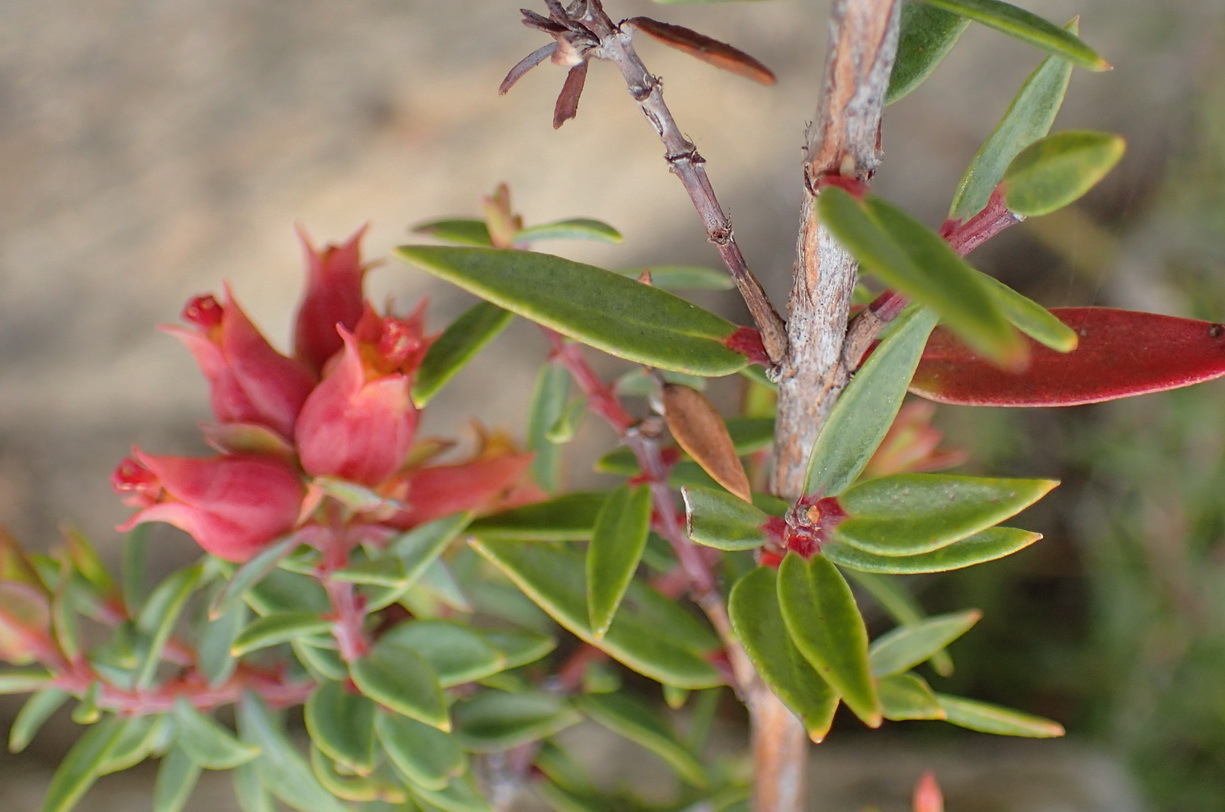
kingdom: Plantae
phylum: Tracheophyta
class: Magnoliopsida
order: Myrtales
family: Penaeaceae
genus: Penaea
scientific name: Penaea acutifolia
